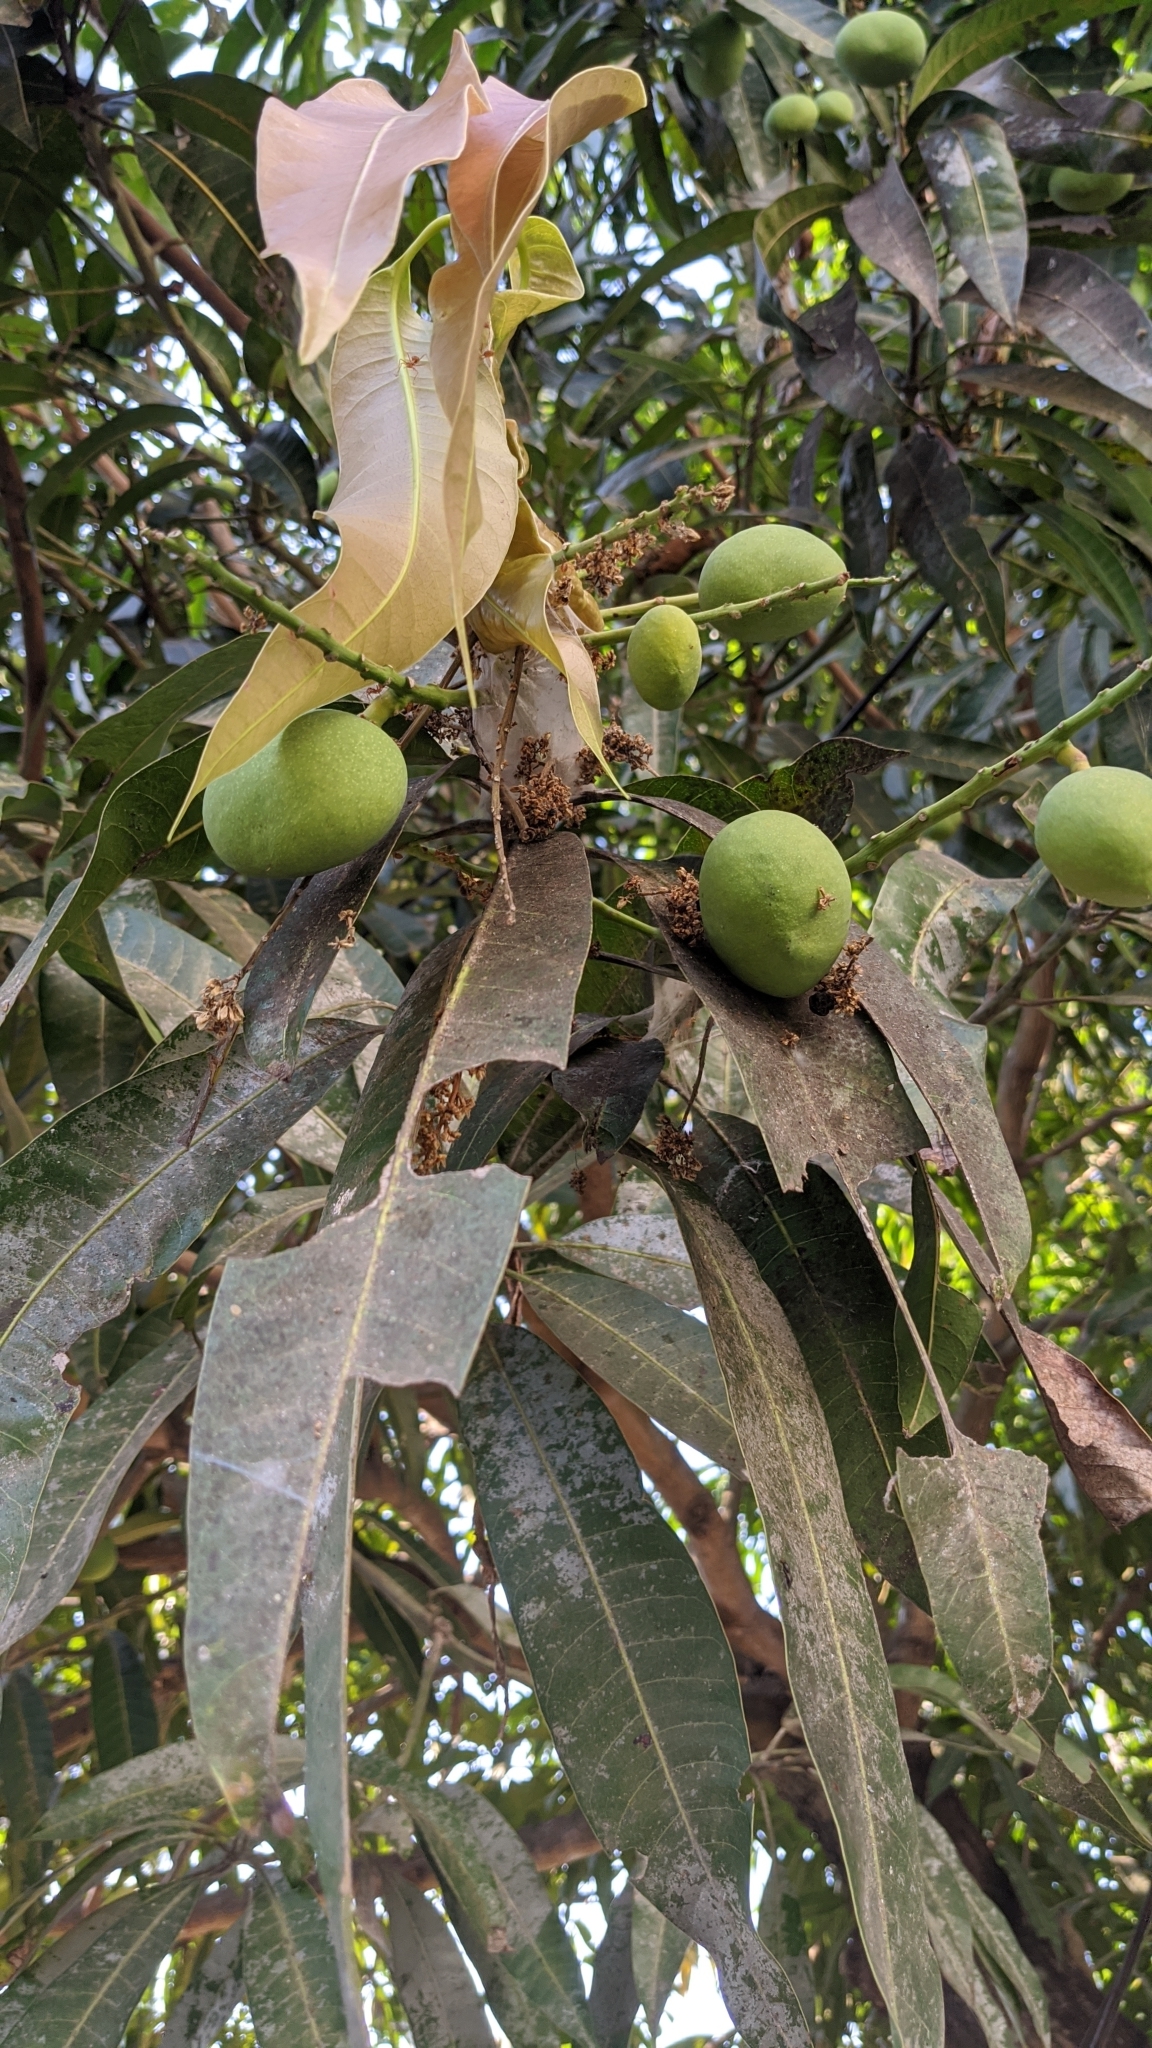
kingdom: Plantae
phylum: Tracheophyta
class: Magnoliopsida
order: Sapindales
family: Anacardiaceae
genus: Mangifera
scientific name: Mangifera indica
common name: Mango
